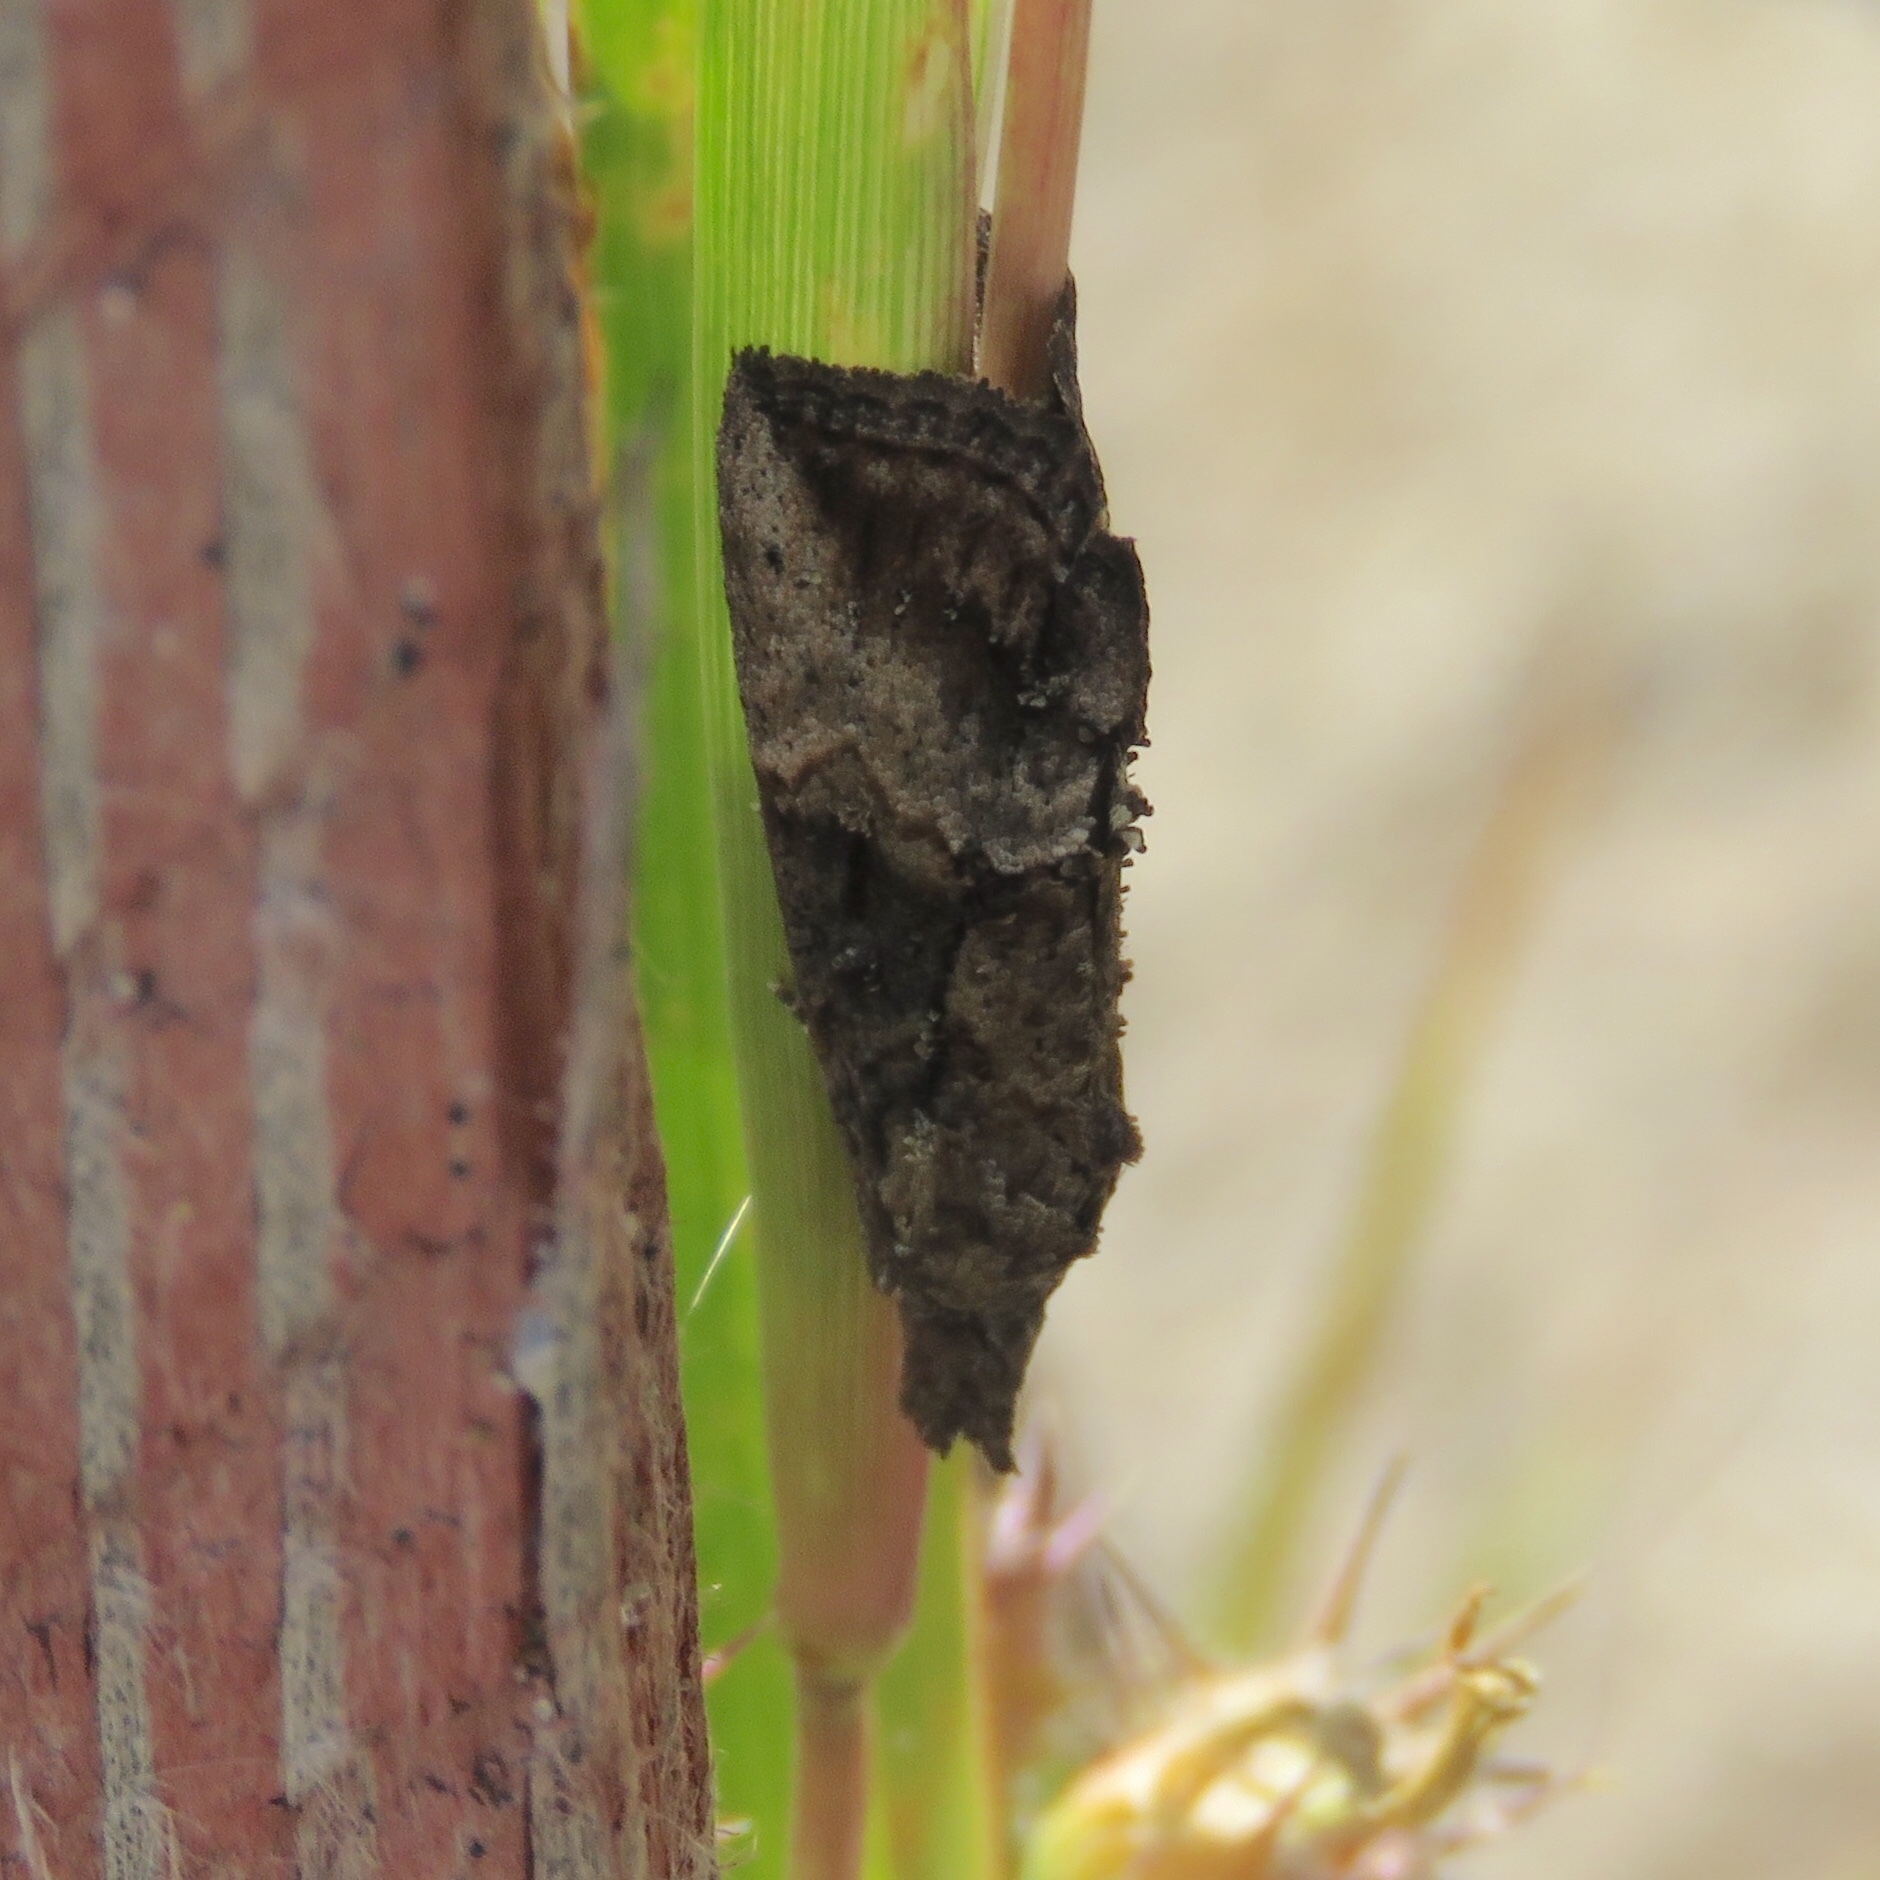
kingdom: Animalia
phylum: Arthropoda
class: Insecta
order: Lepidoptera
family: Erebidae
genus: Hypena
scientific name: Hypena scabra
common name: Green cloverworm
